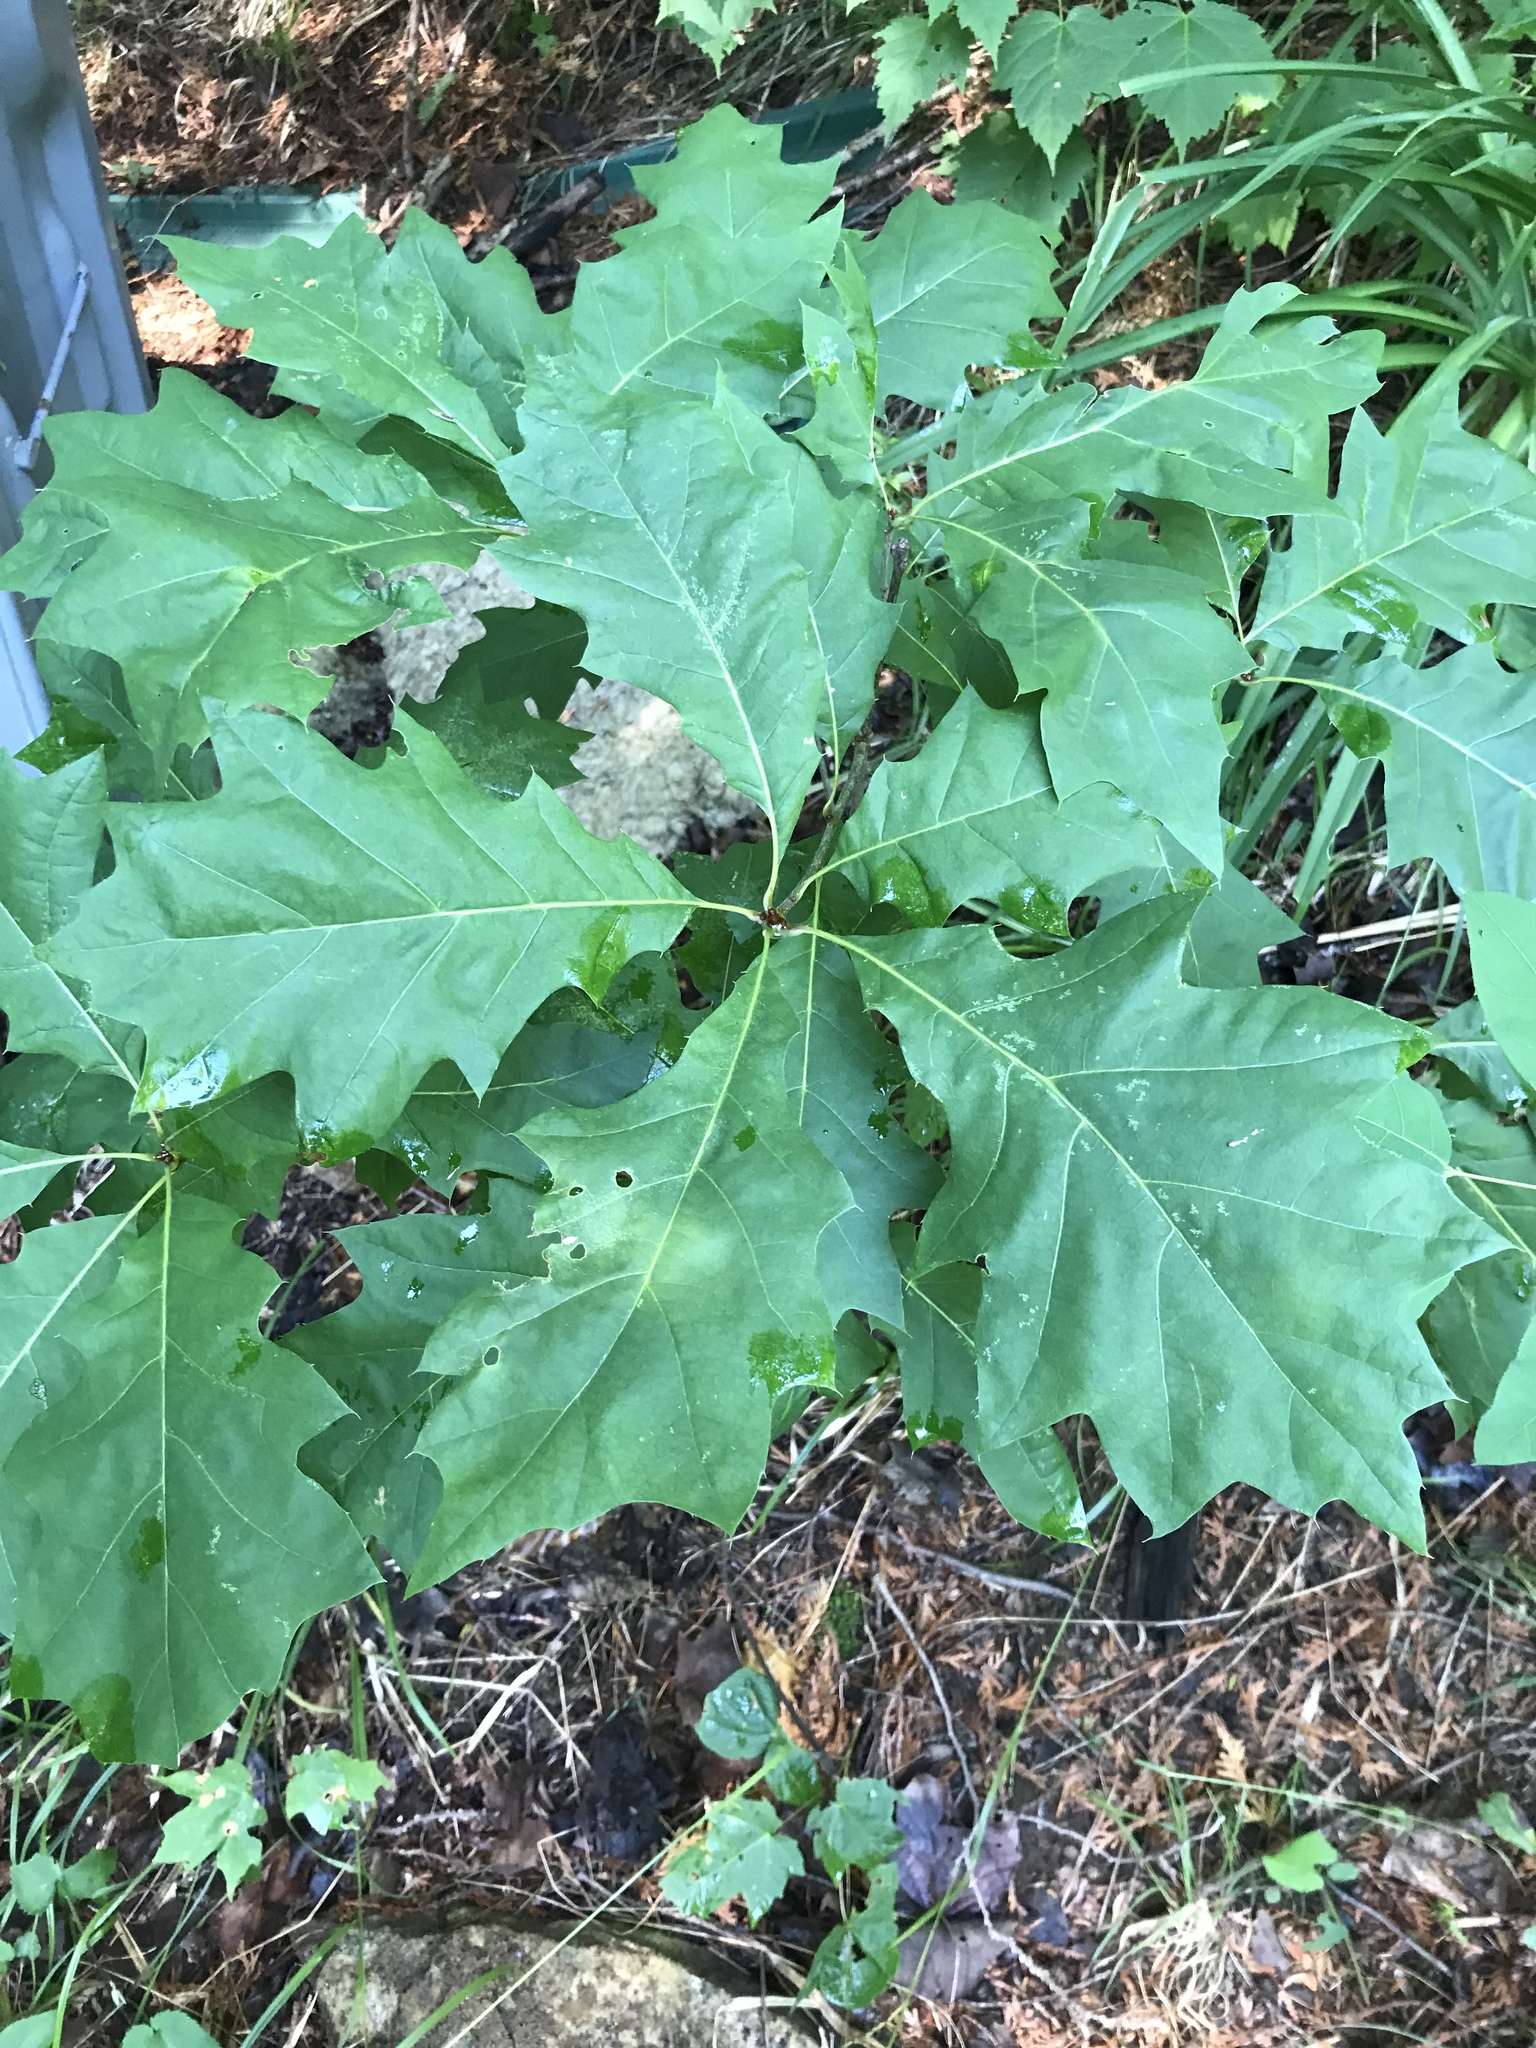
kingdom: Plantae
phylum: Tracheophyta
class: Magnoliopsida
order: Fagales
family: Fagaceae
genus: Quercus
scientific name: Quercus rubra
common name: Red oak
